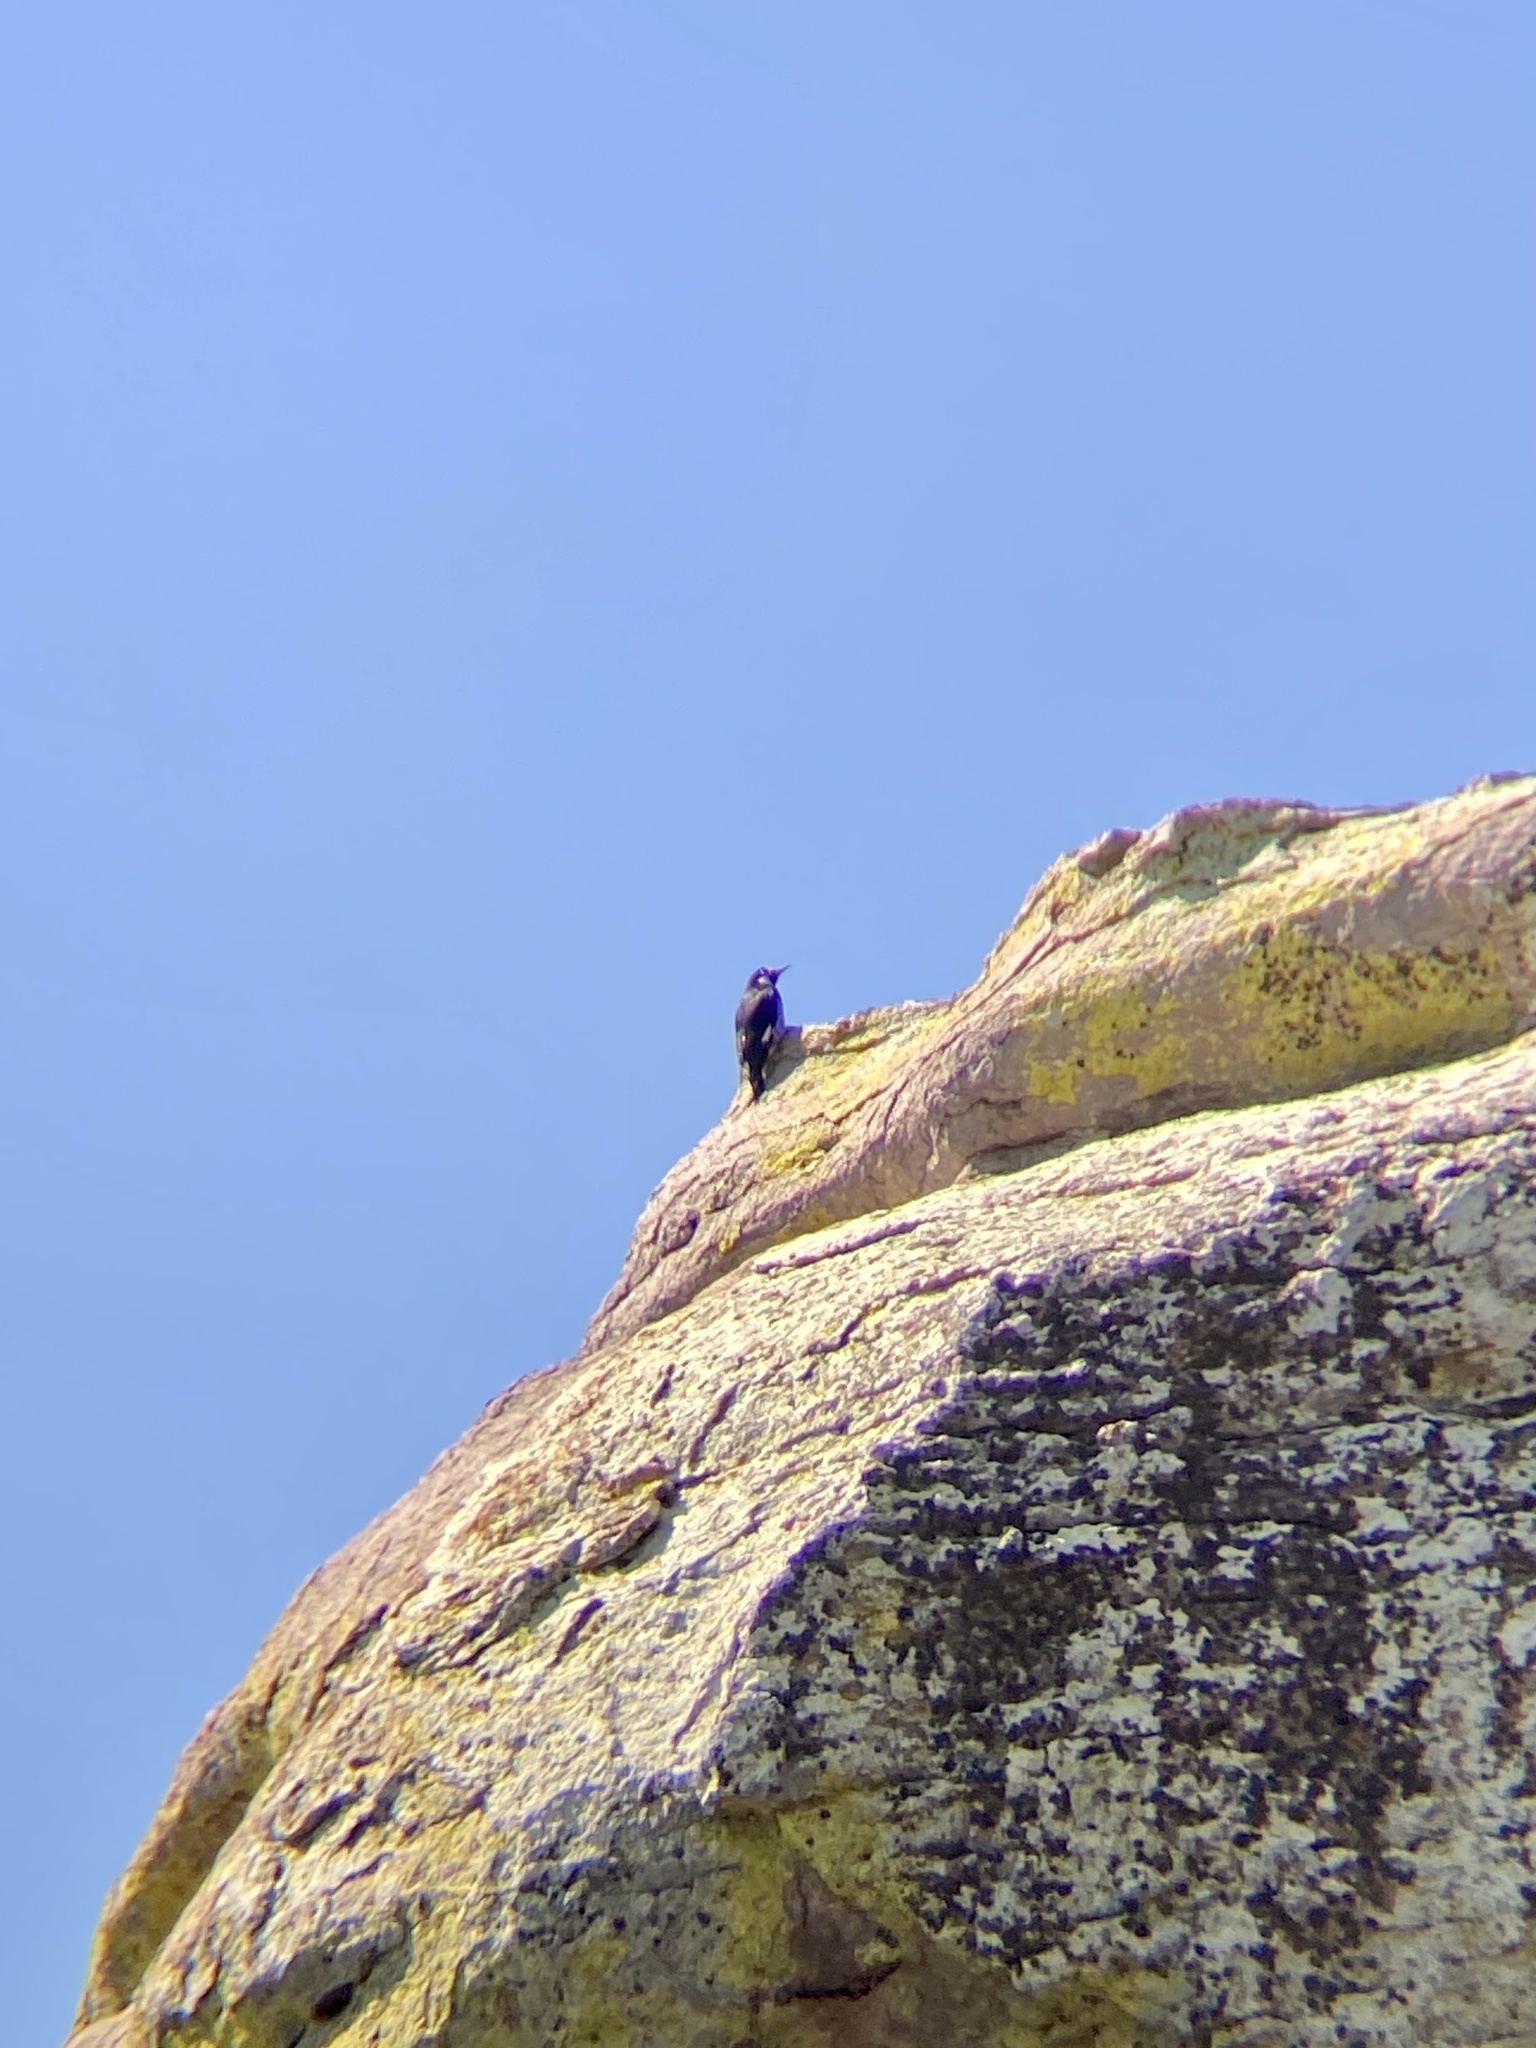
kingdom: Animalia
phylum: Chordata
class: Aves
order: Piciformes
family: Picidae
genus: Melanerpes
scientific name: Melanerpes formicivorus
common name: Acorn woodpecker
